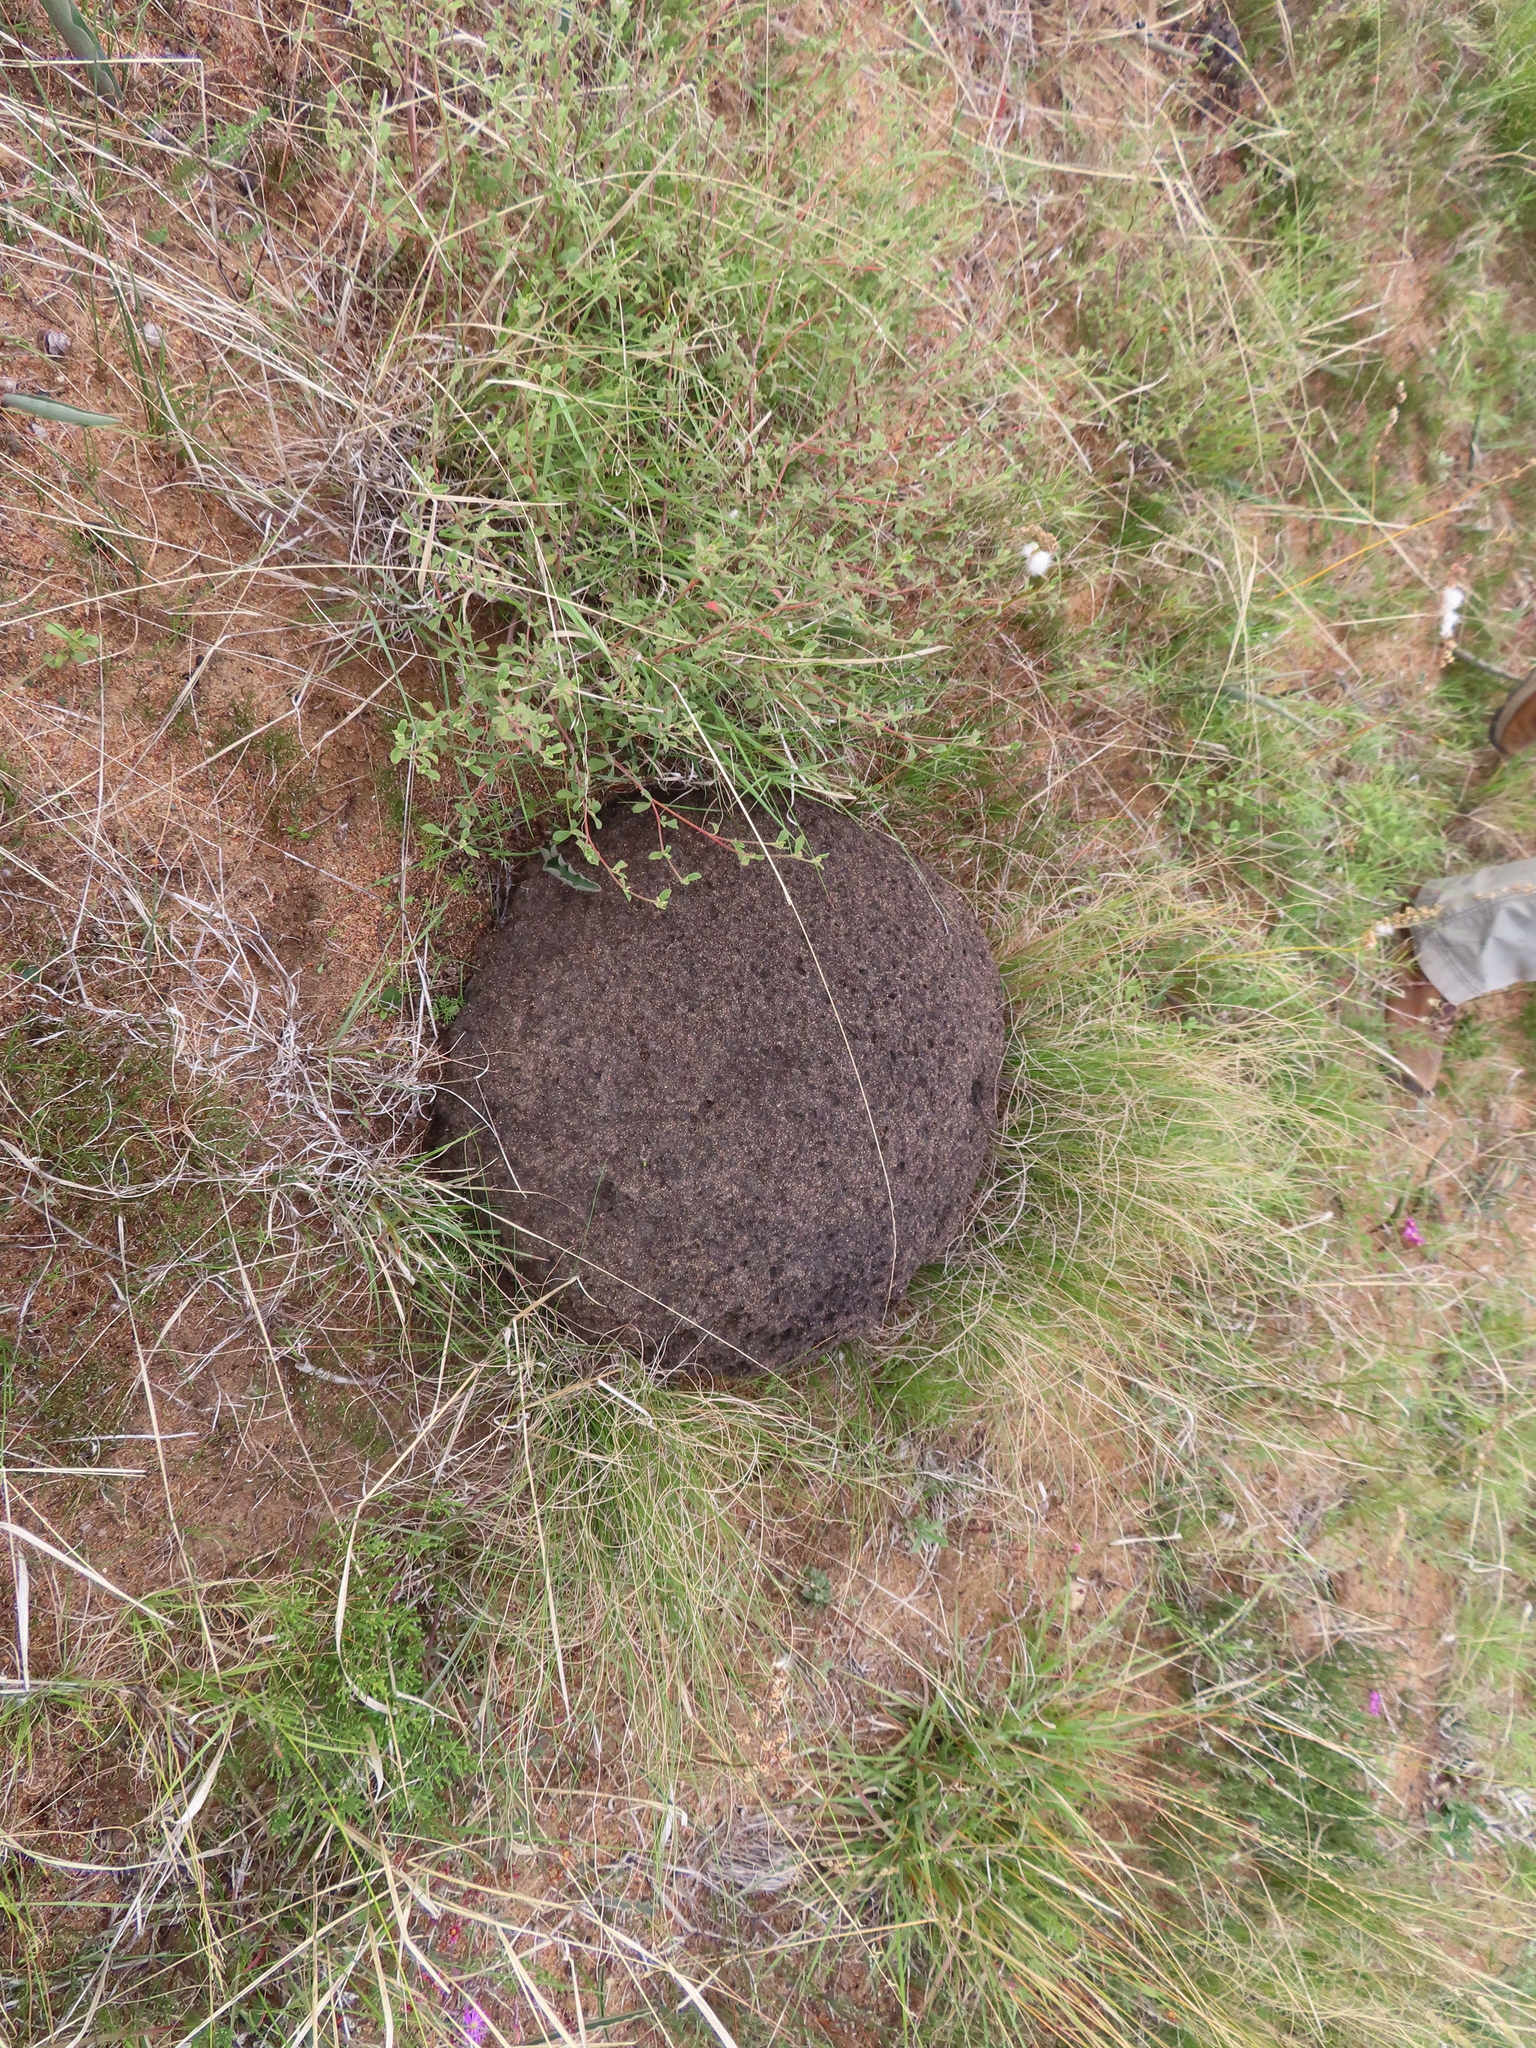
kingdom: Animalia
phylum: Arthropoda
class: Insecta
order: Blattodea
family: Termitidae
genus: Amitermes
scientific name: Amitermes hastatus
